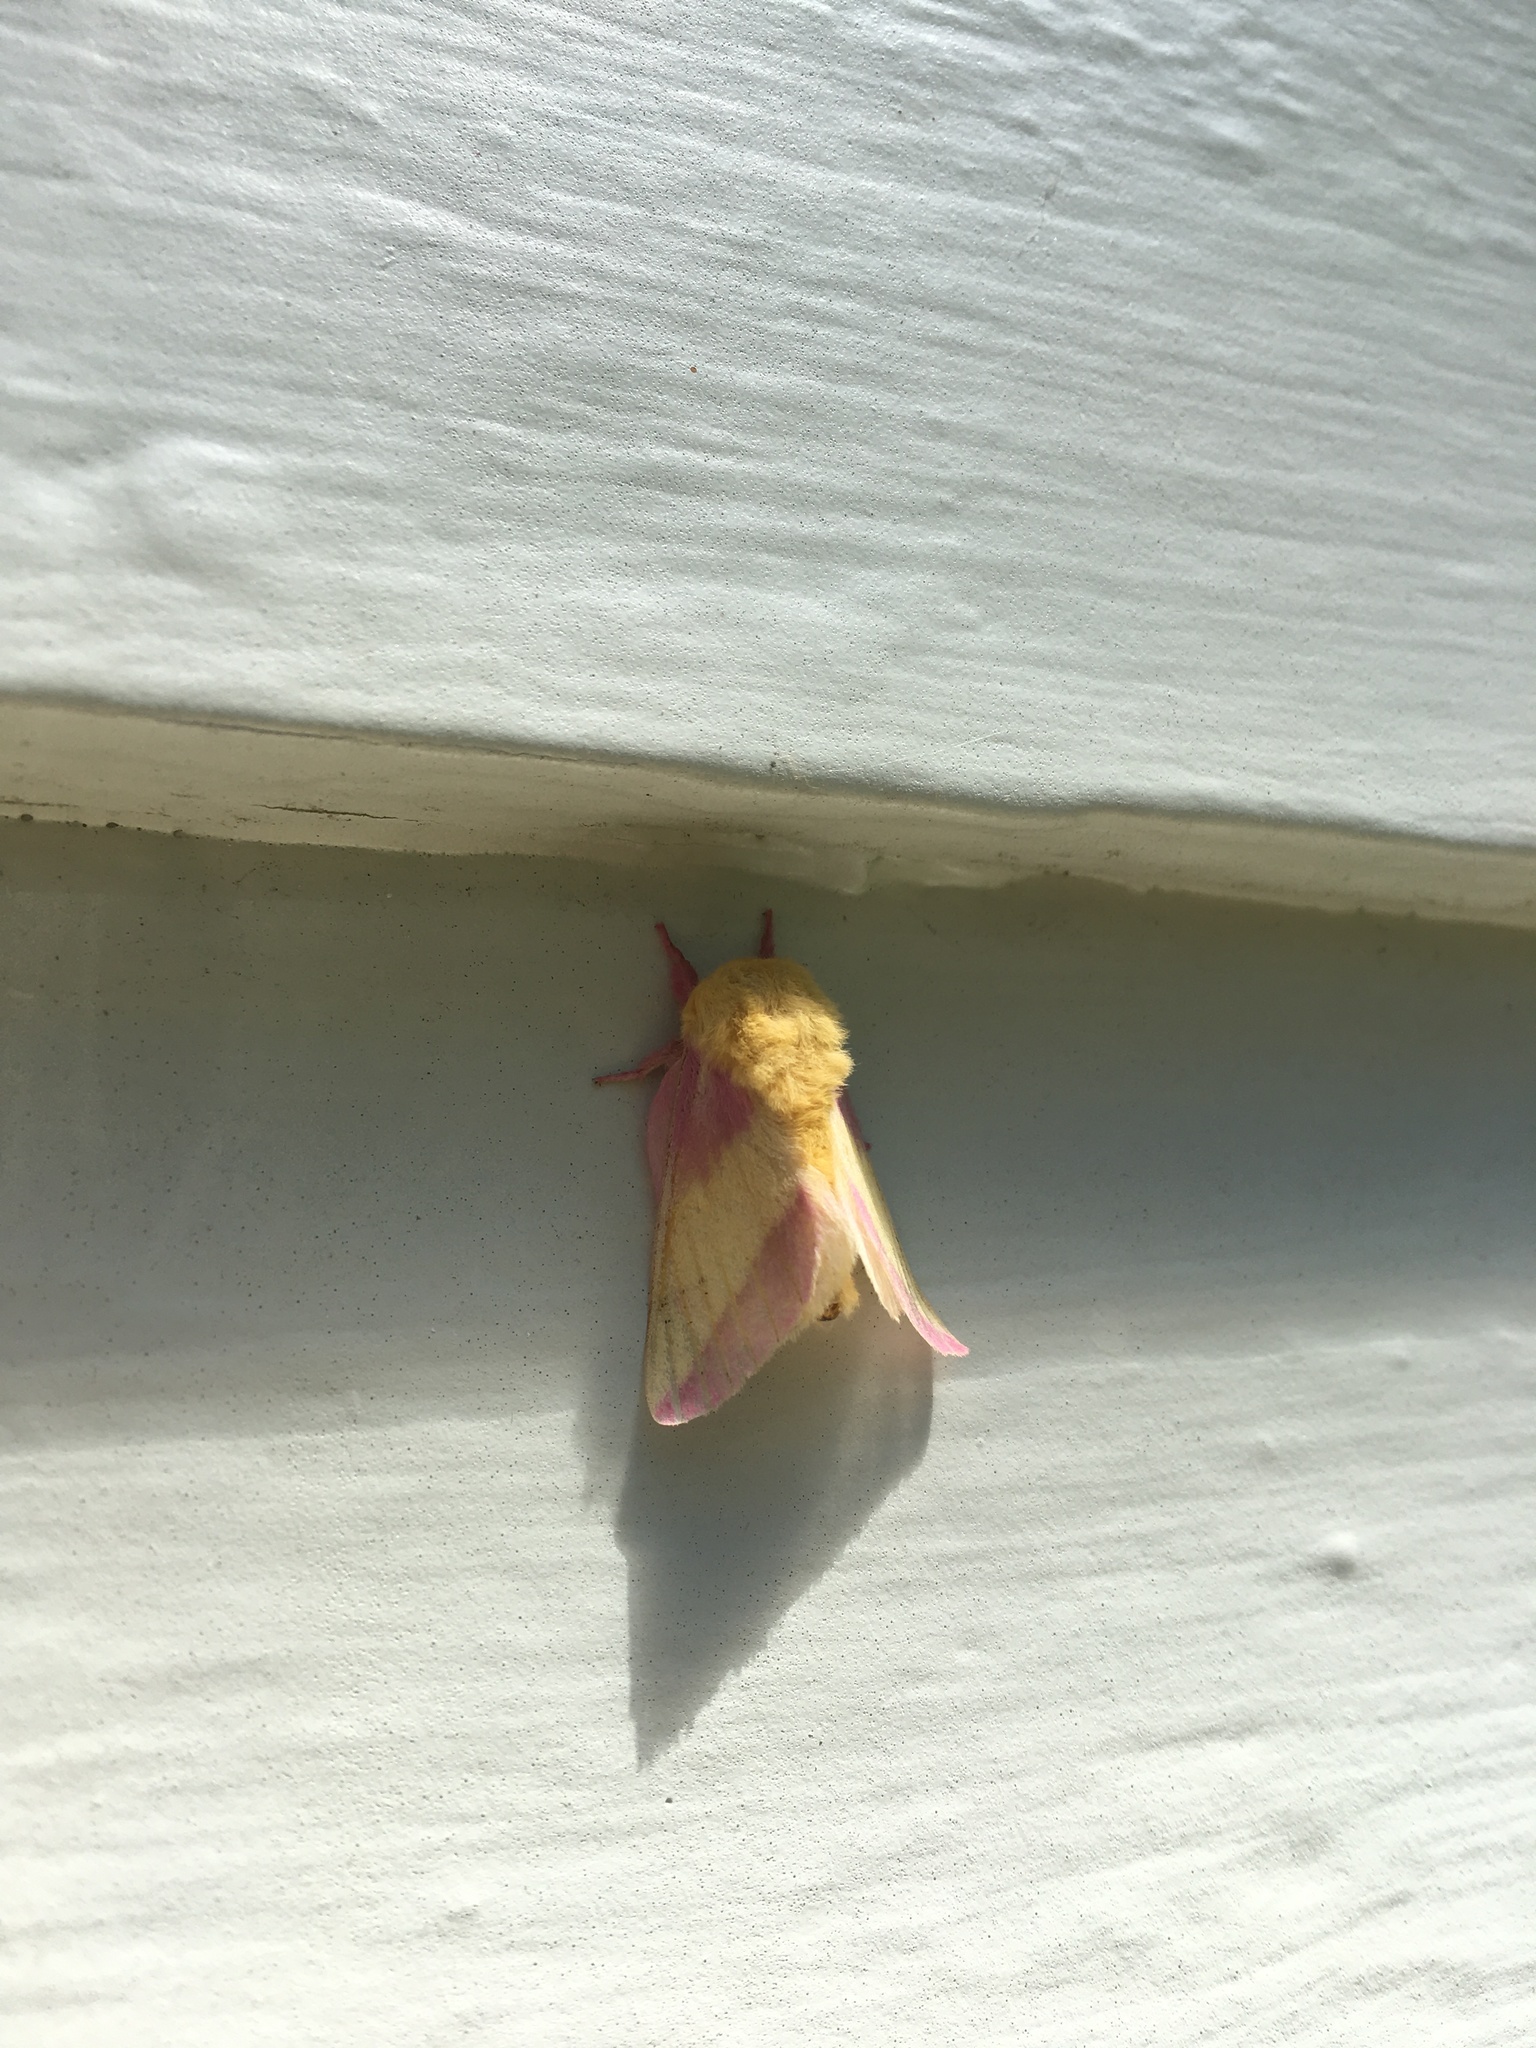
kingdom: Animalia
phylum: Arthropoda
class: Insecta
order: Lepidoptera
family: Saturniidae
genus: Dryocampa
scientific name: Dryocampa rubicunda
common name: Rosy maple moth
